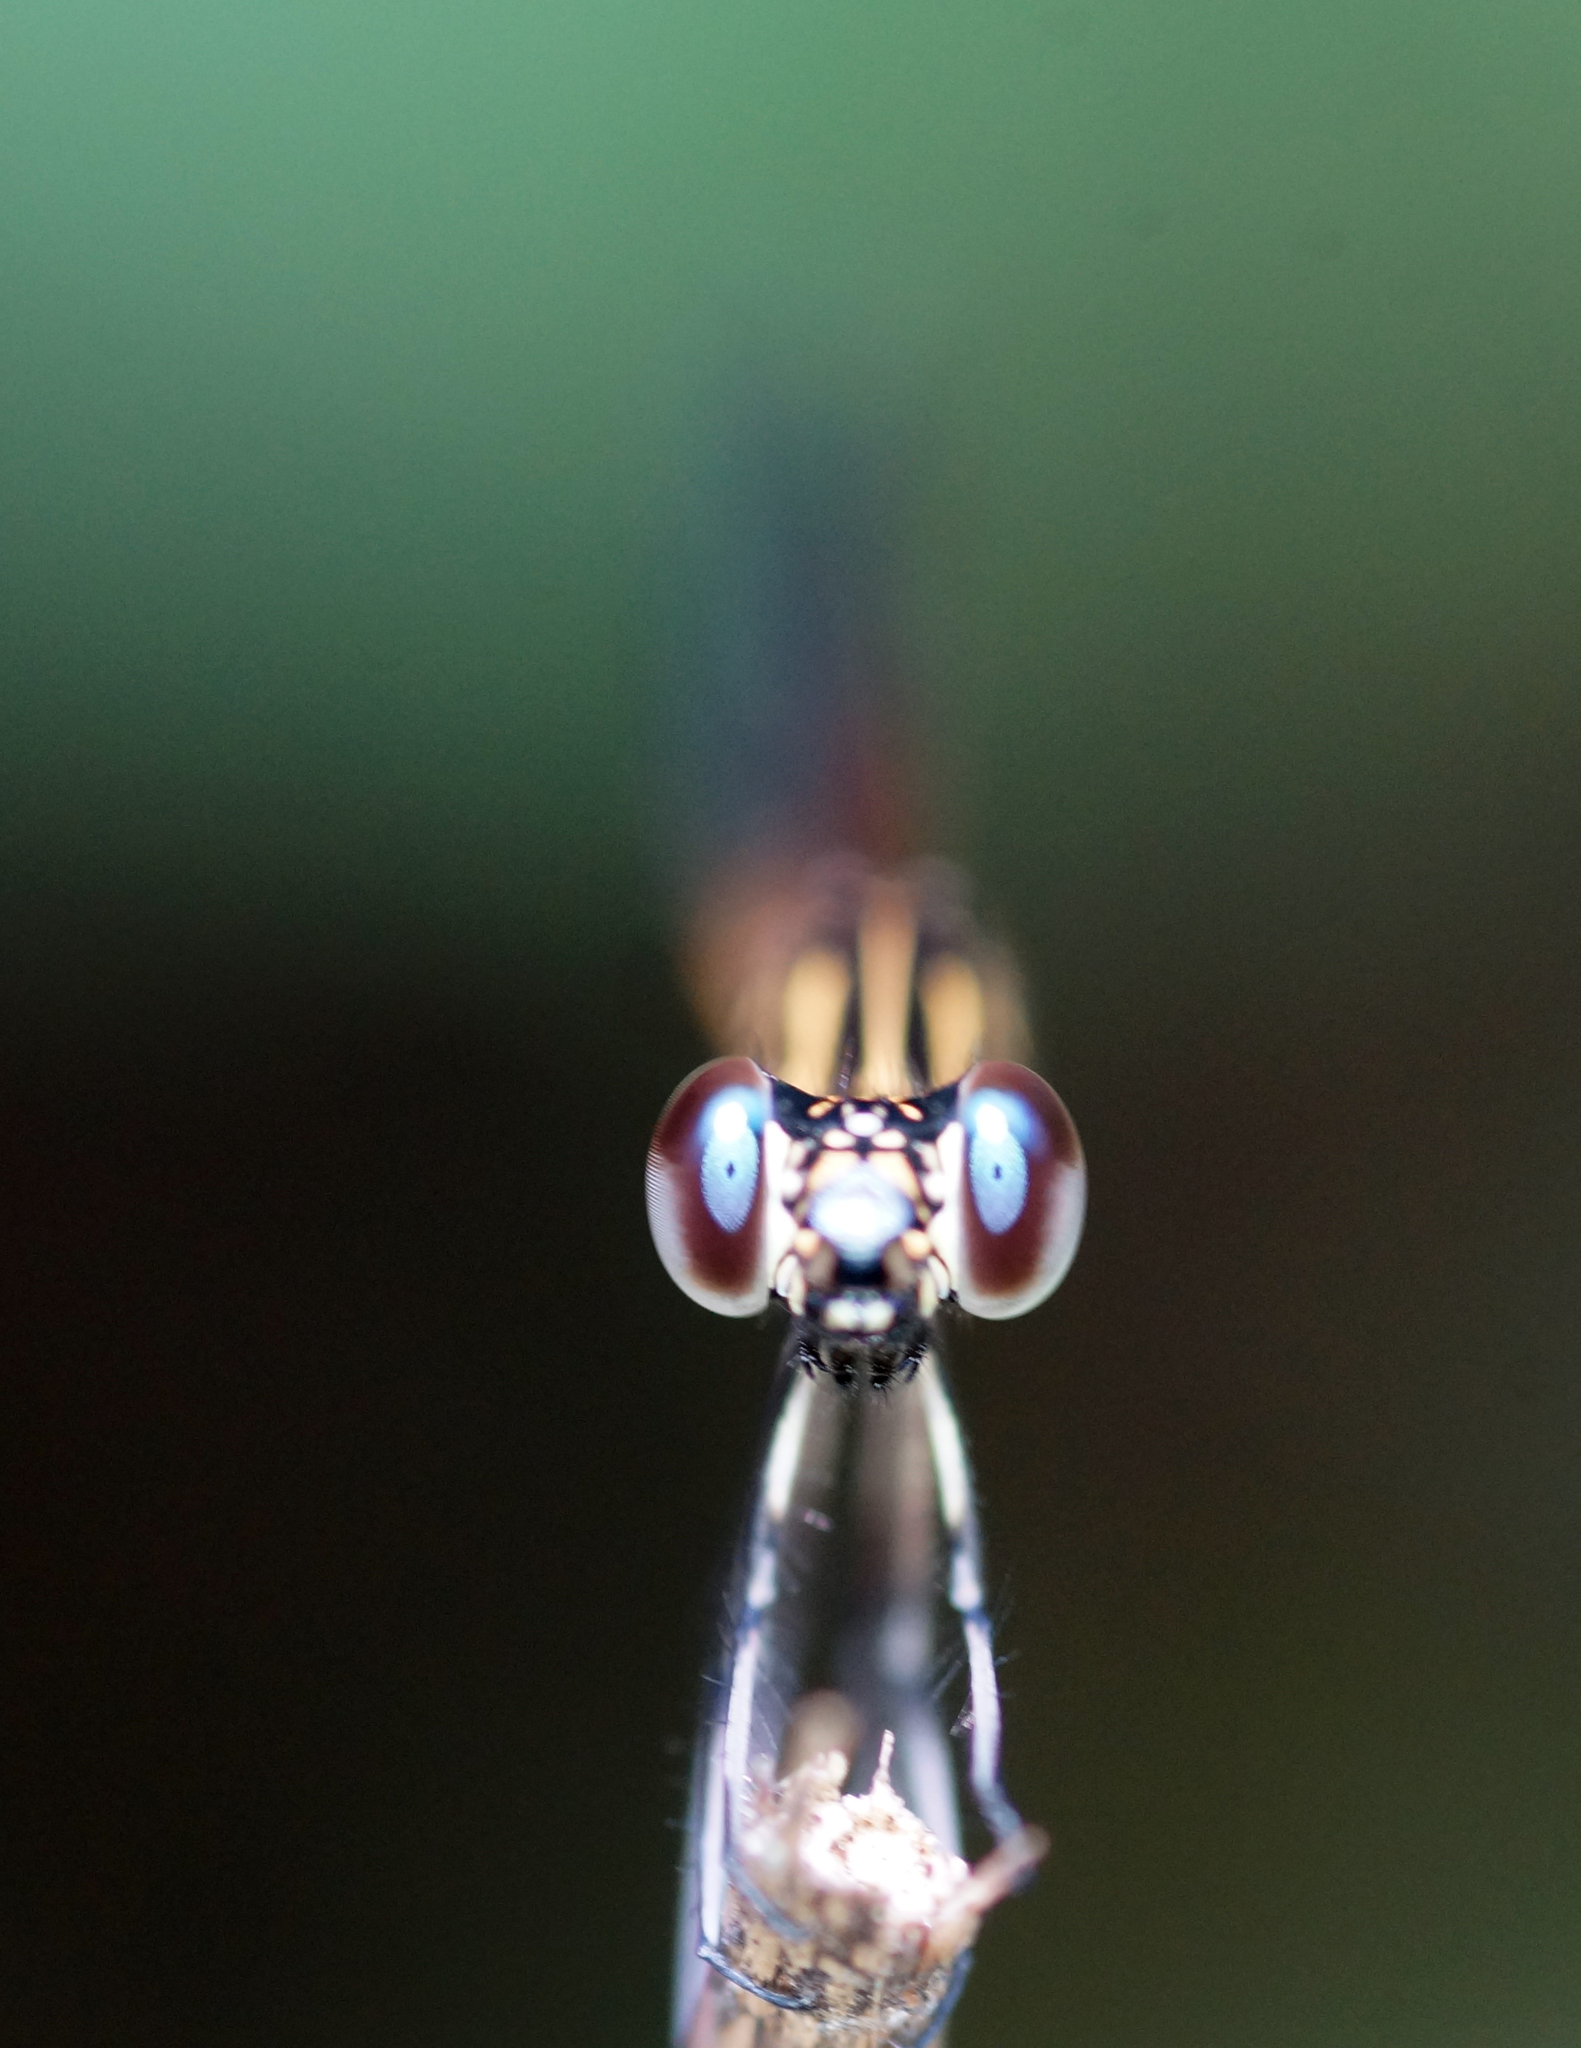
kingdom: Animalia
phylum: Arthropoda
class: Insecta
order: Odonata
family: Chlorocyphidae
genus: Libellago
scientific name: Libellago lineata
